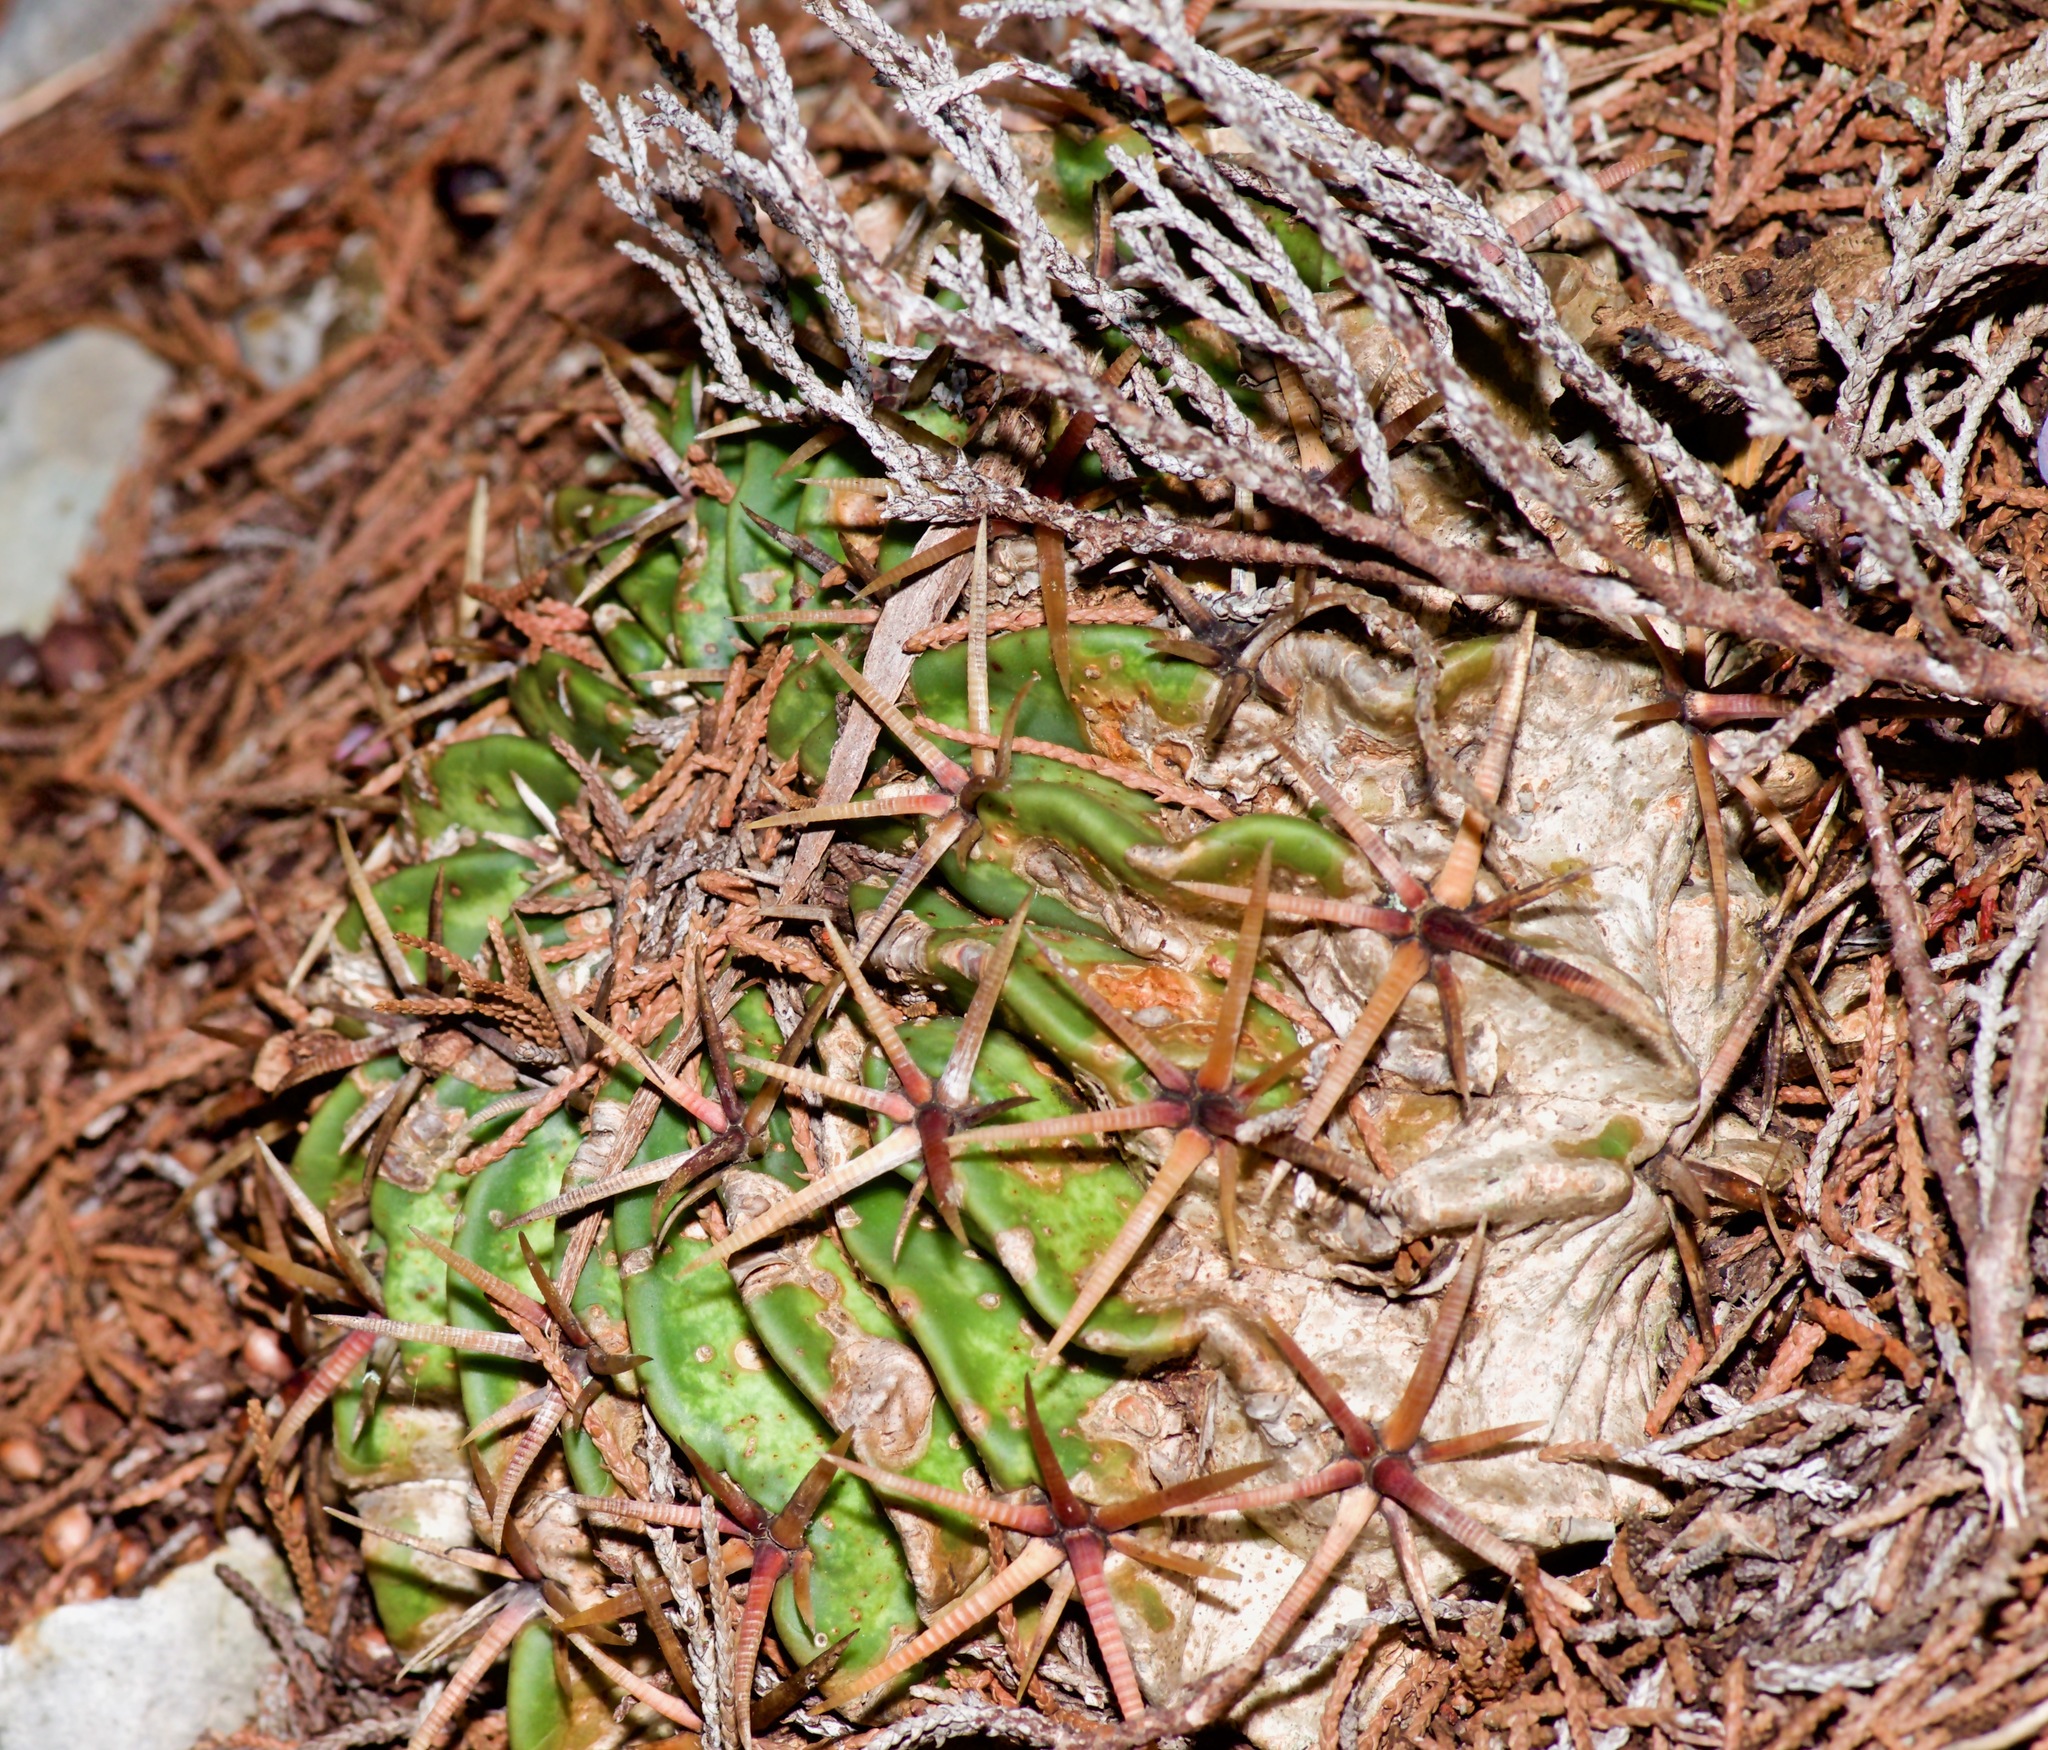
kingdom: Plantae
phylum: Tracheophyta
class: Magnoliopsida
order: Caryophyllales
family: Cactaceae
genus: Echinocactus
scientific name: Echinocactus texensis
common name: Devil's pincushion
